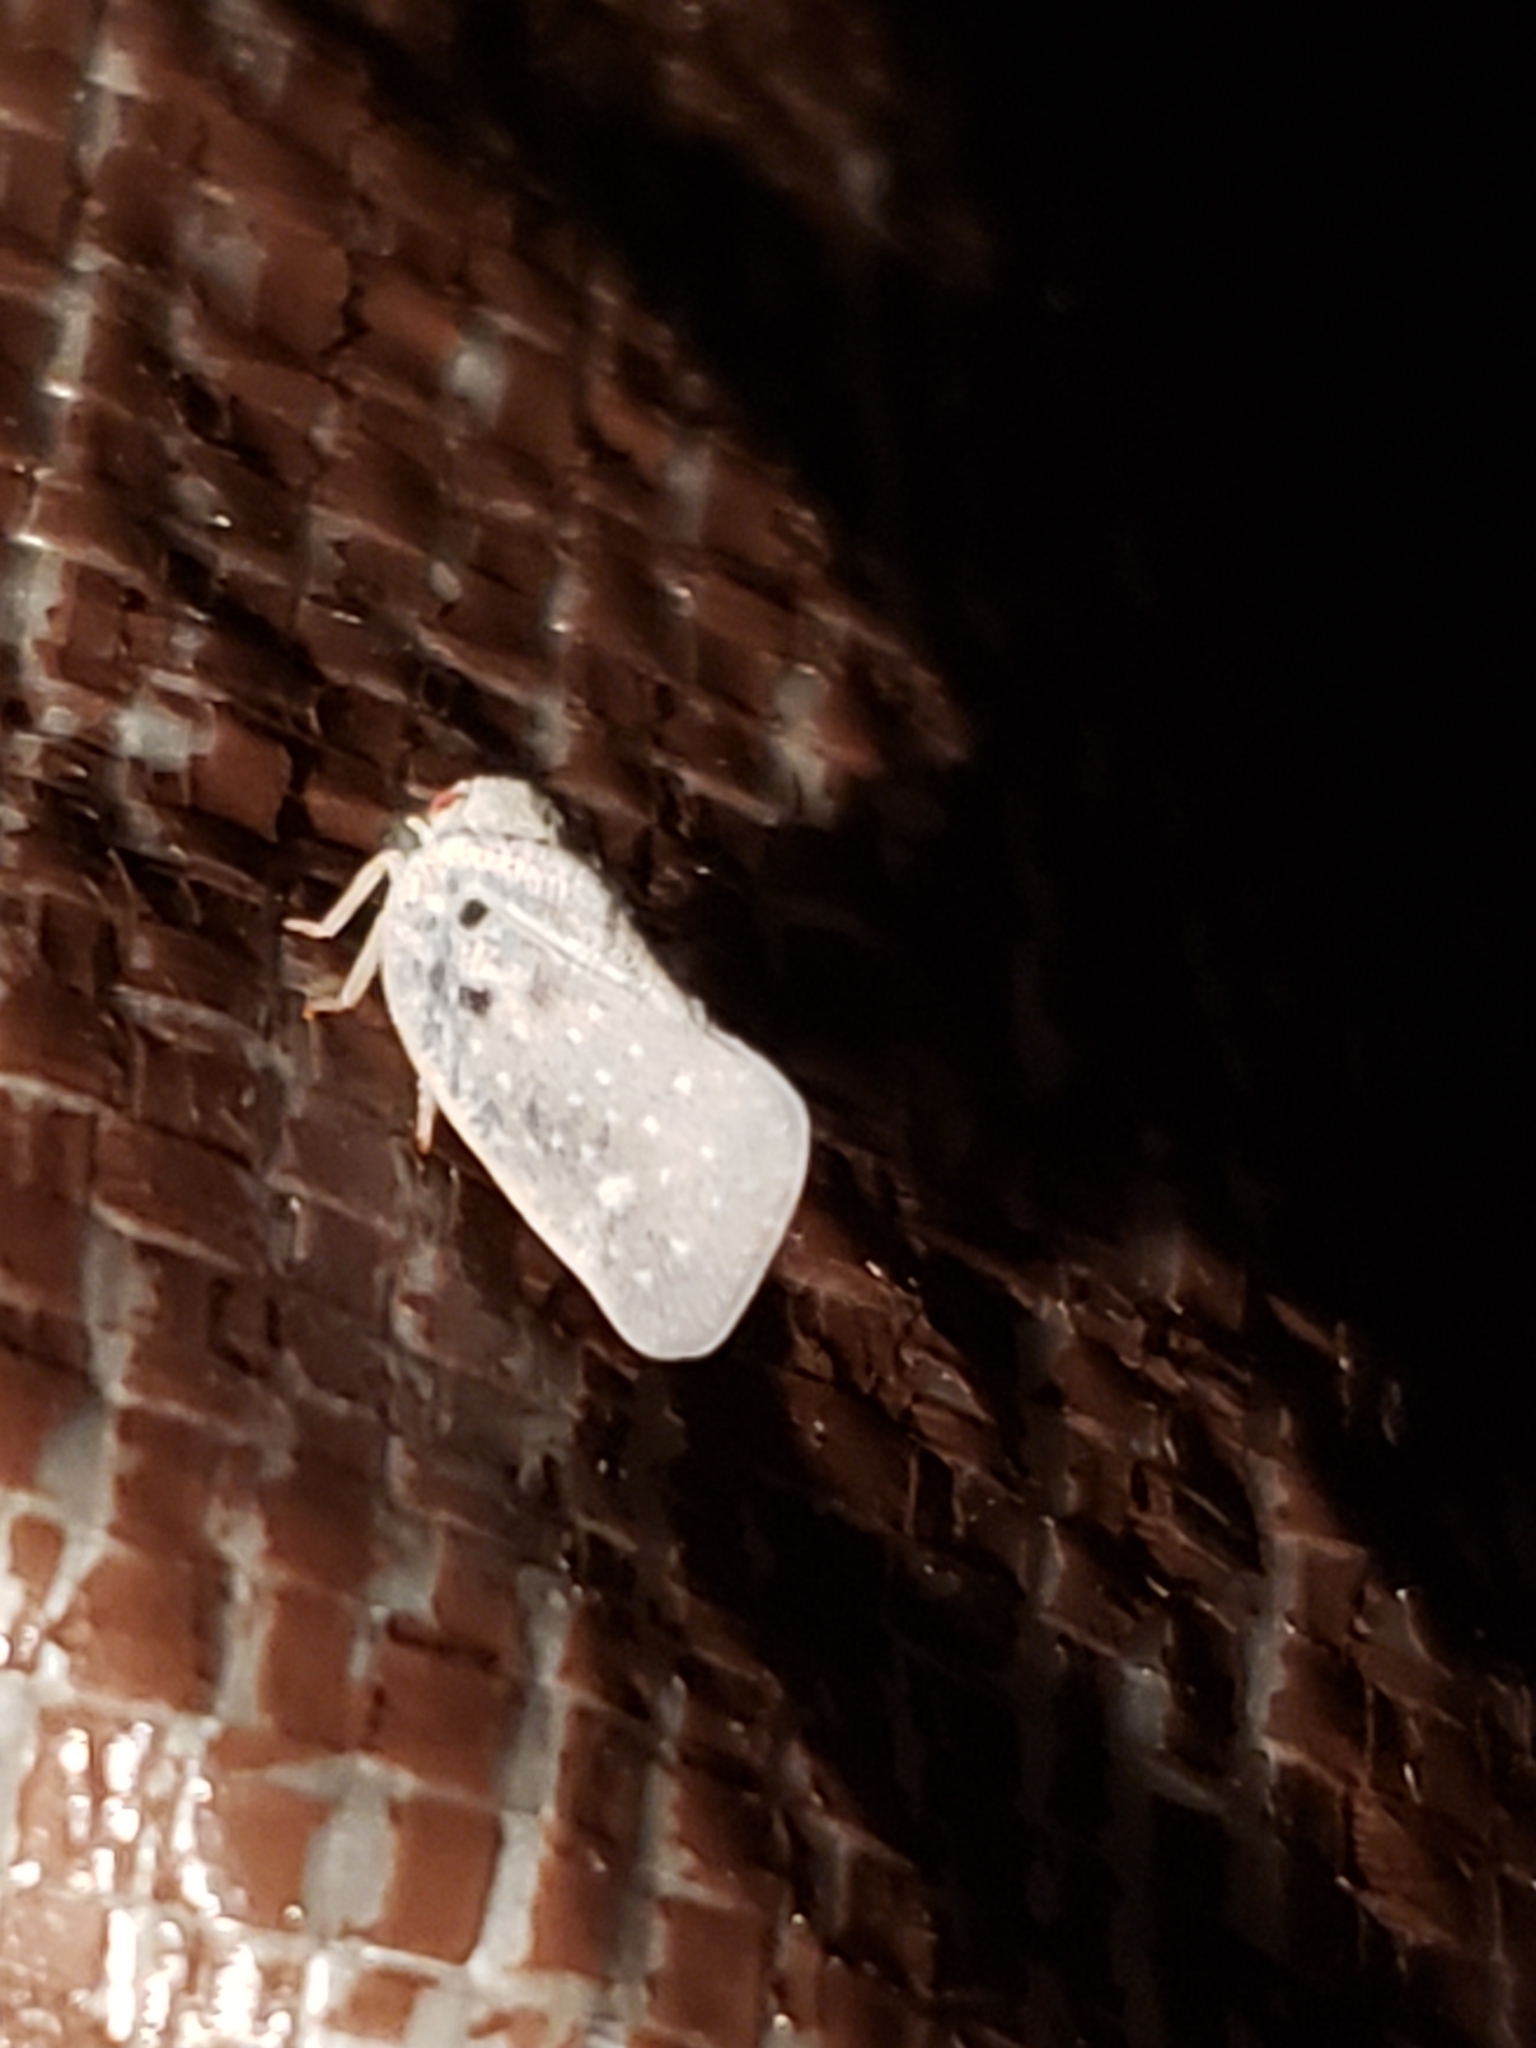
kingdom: Animalia
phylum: Arthropoda
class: Insecta
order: Hemiptera
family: Flatidae
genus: Metcalfa
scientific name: Metcalfa pruinosa
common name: Citrus flatid planthopper
